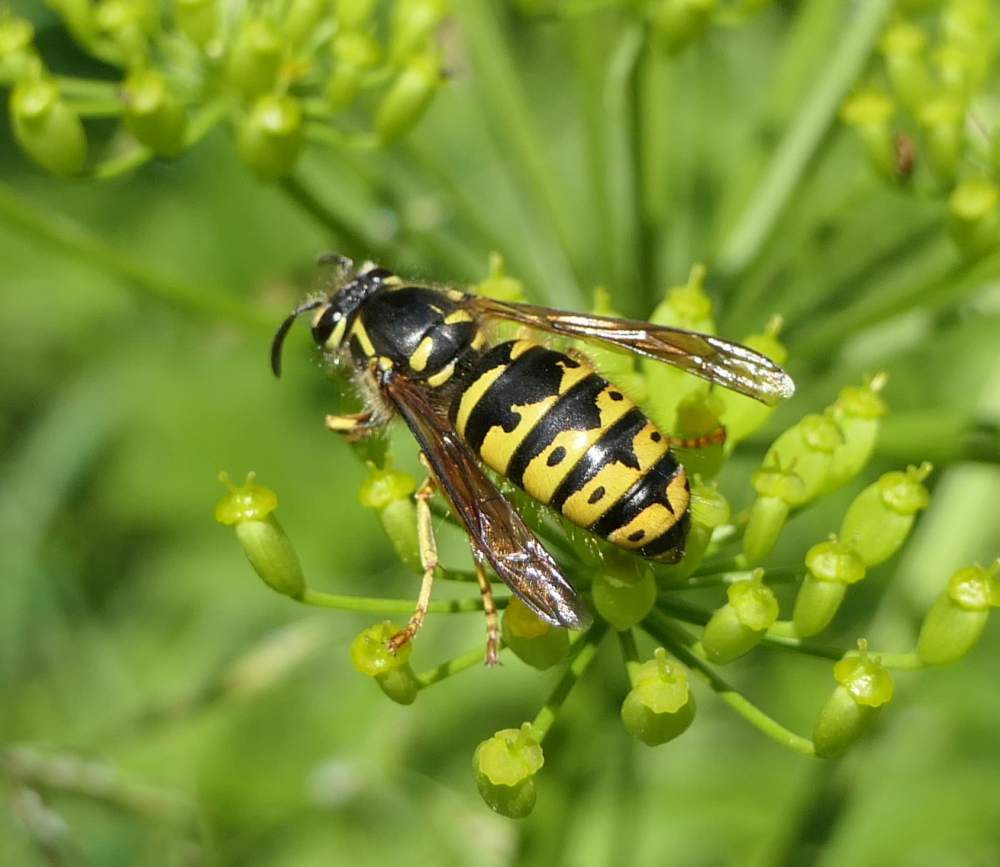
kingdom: Animalia
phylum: Arthropoda
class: Insecta
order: Hymenoptera
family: Vespidae
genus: Dolichovespula
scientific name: Dolichovespula arenaria
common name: Aerial yellowjacket
